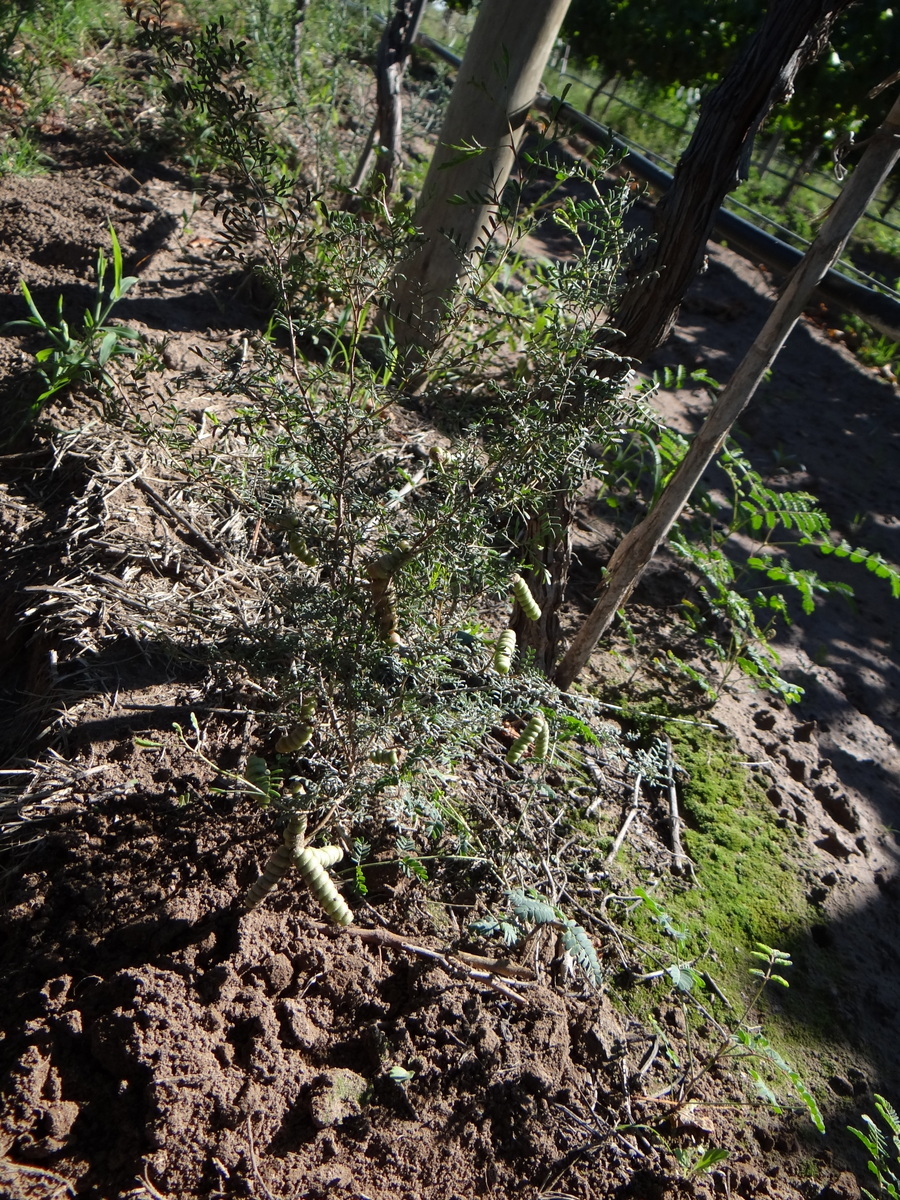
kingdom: Plantae
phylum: Tracheophyta
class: Magnoliopsida
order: Fabales
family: Fabaceae
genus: Prosopis
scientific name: Prosopis strombulifera
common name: Creeping mesquite
